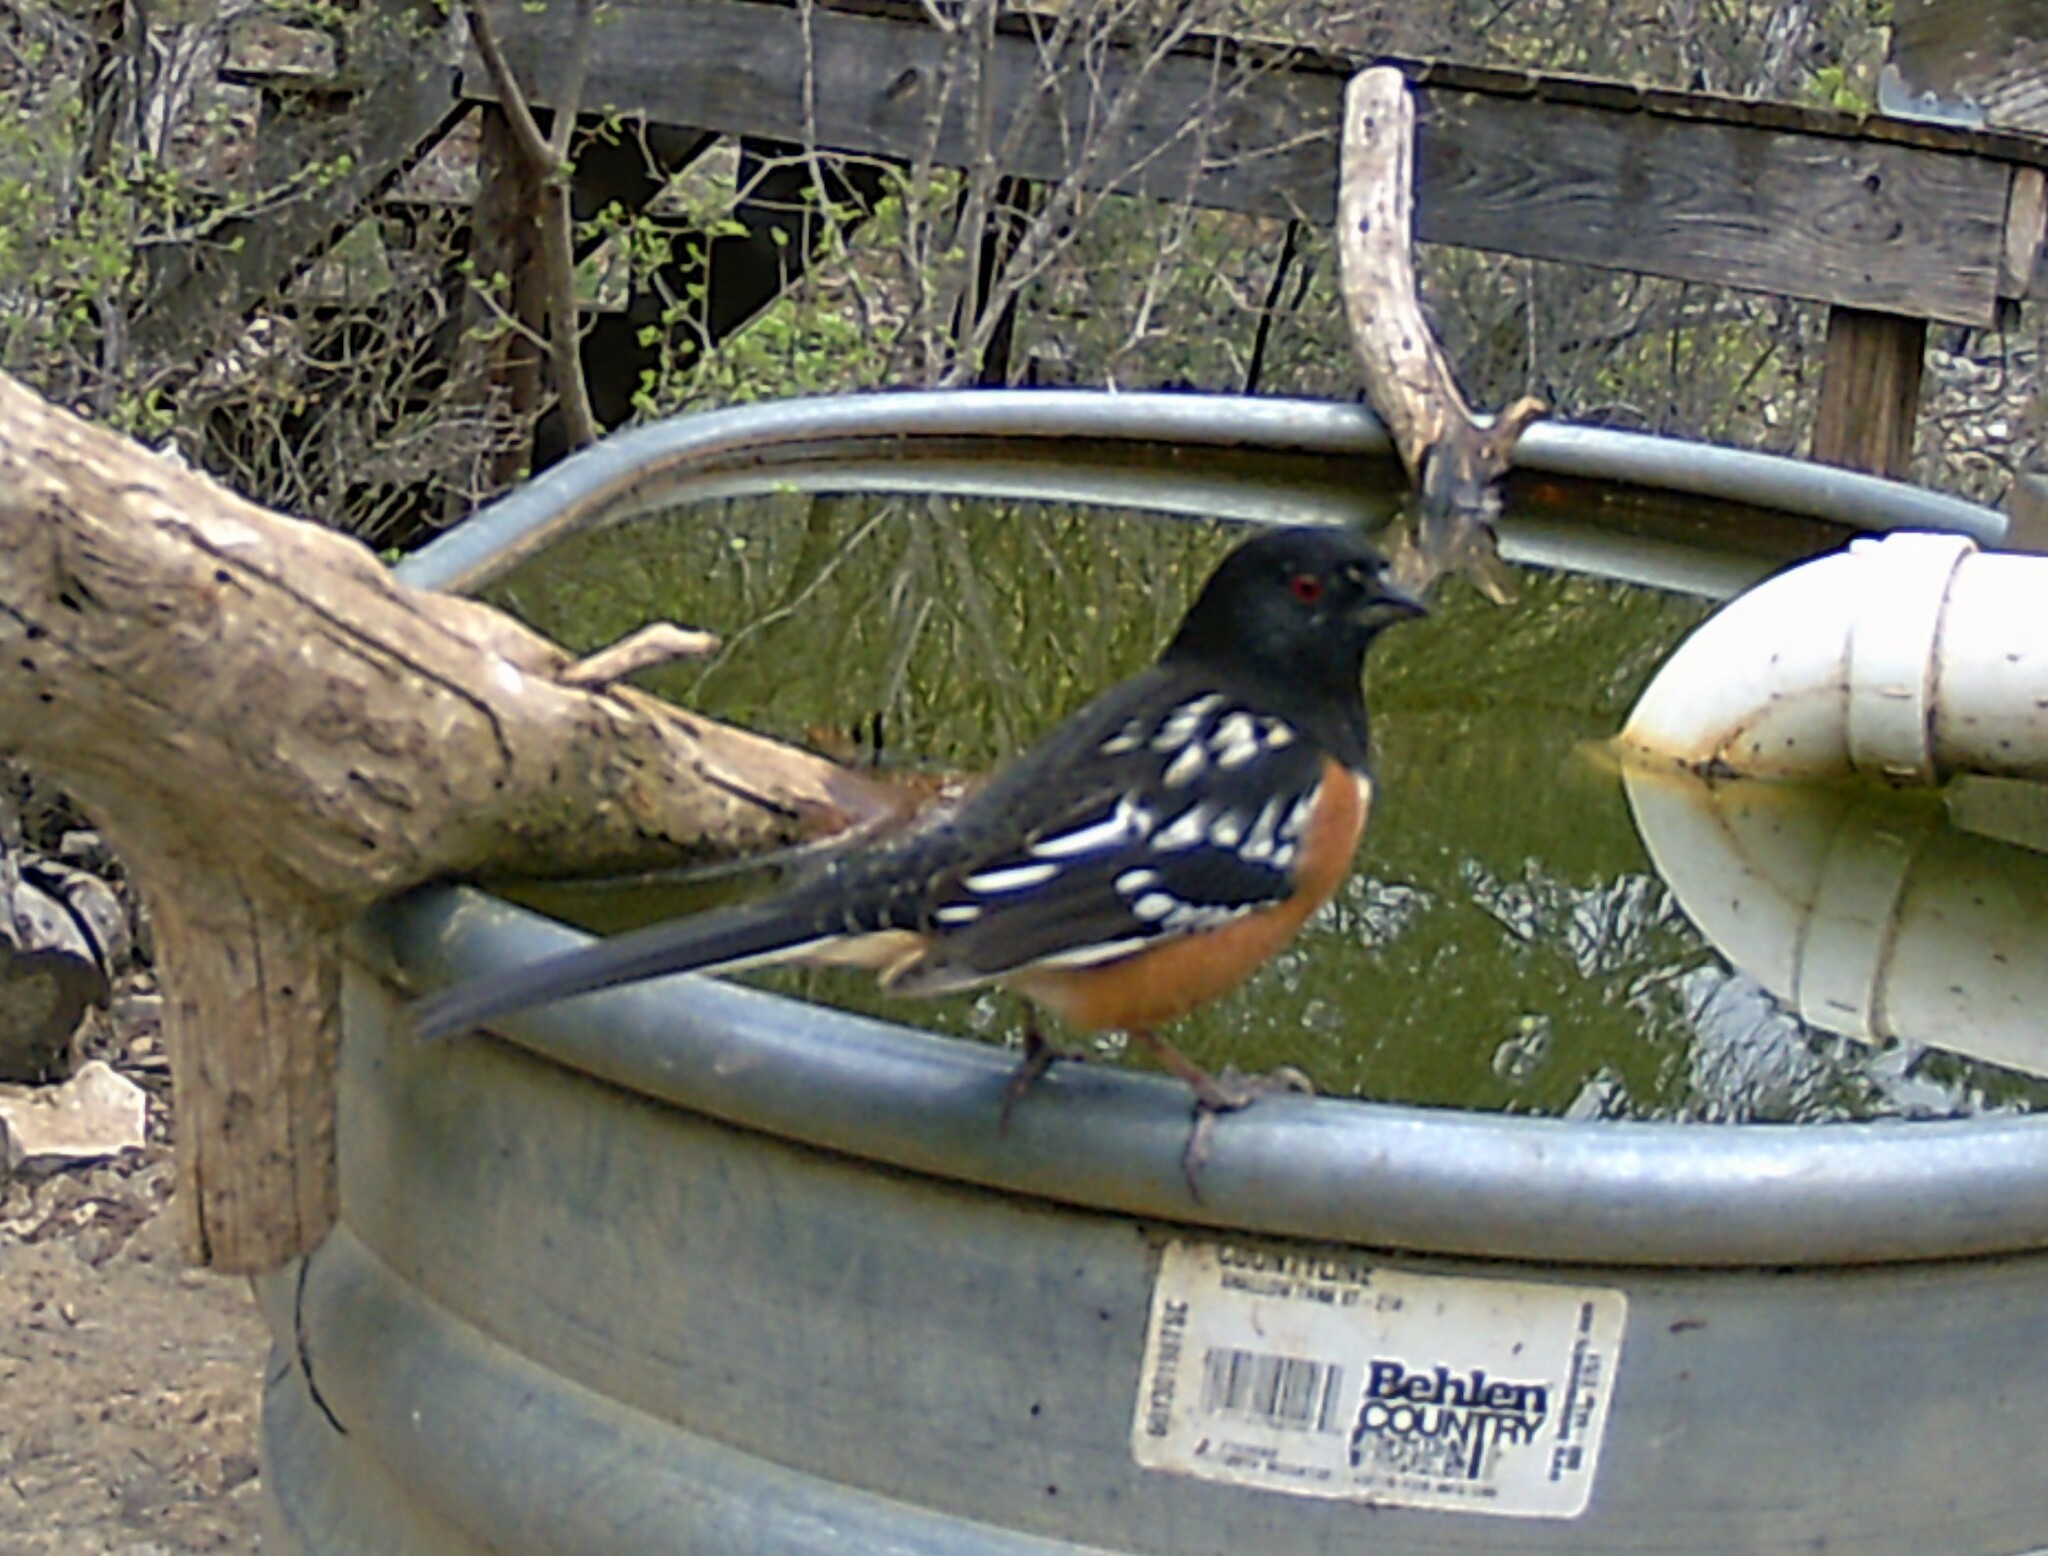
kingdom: Animalia
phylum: Chordata
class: Aves
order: Passeriformes
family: Passerellidae
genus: Pipilo
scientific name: Pipilo maculatus
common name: Spotted towhee
